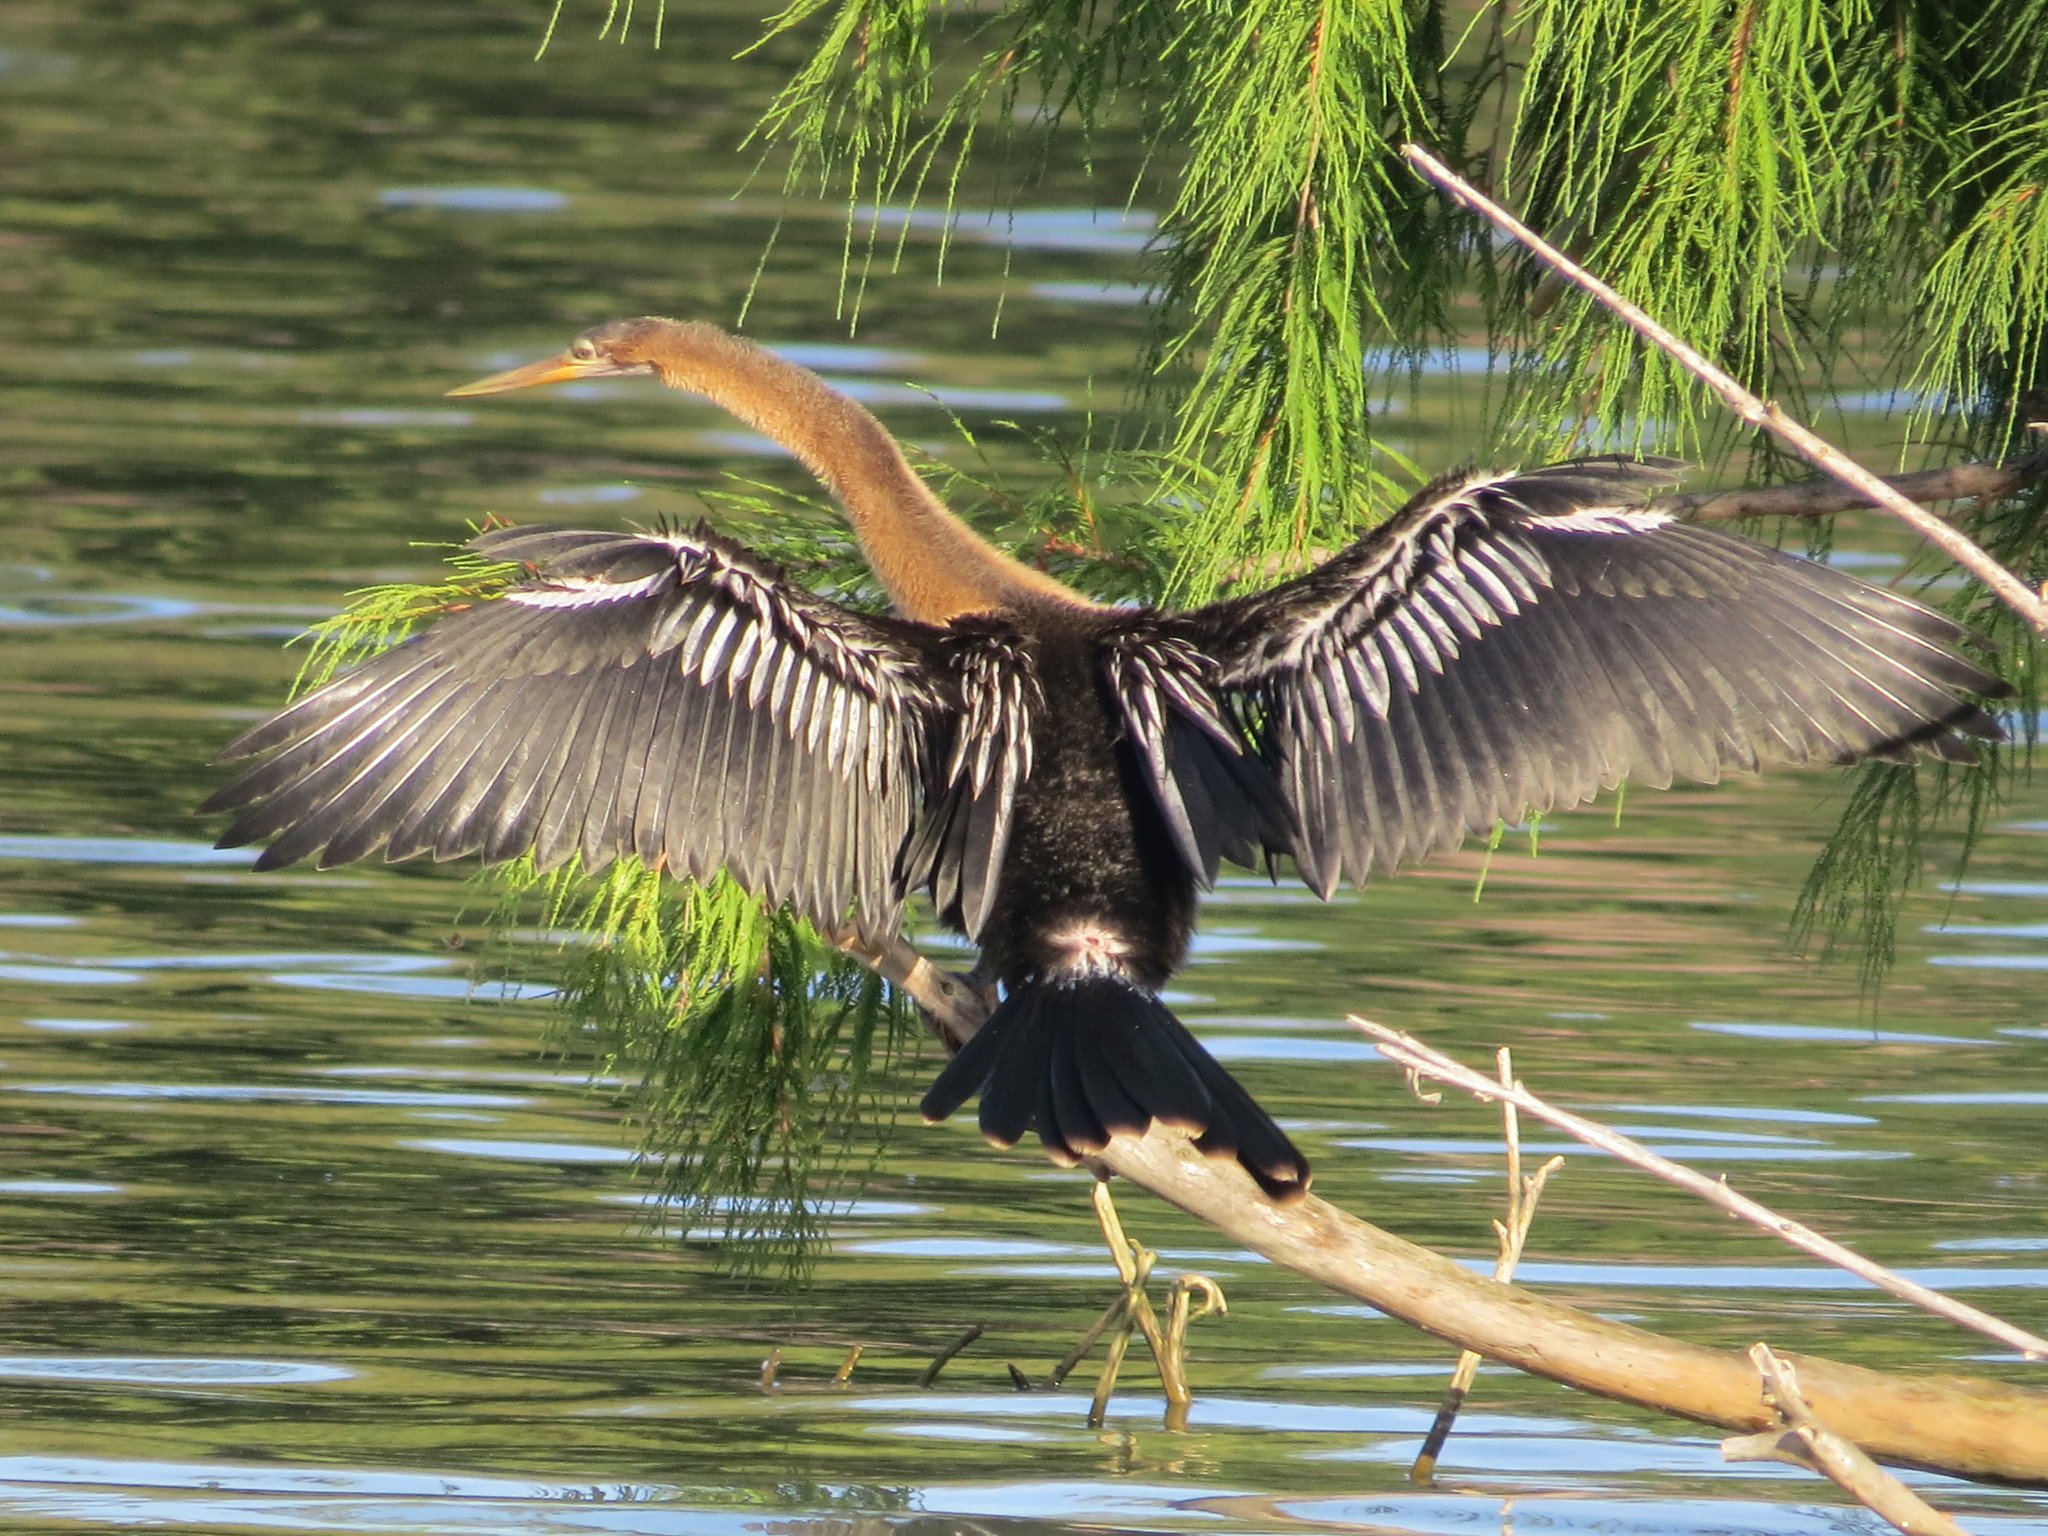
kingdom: Animalia
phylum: Chordata
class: Aves
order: Suliformes
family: Anhingidae
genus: Anhinga
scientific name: Anhinga anhinga
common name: Anhinga
